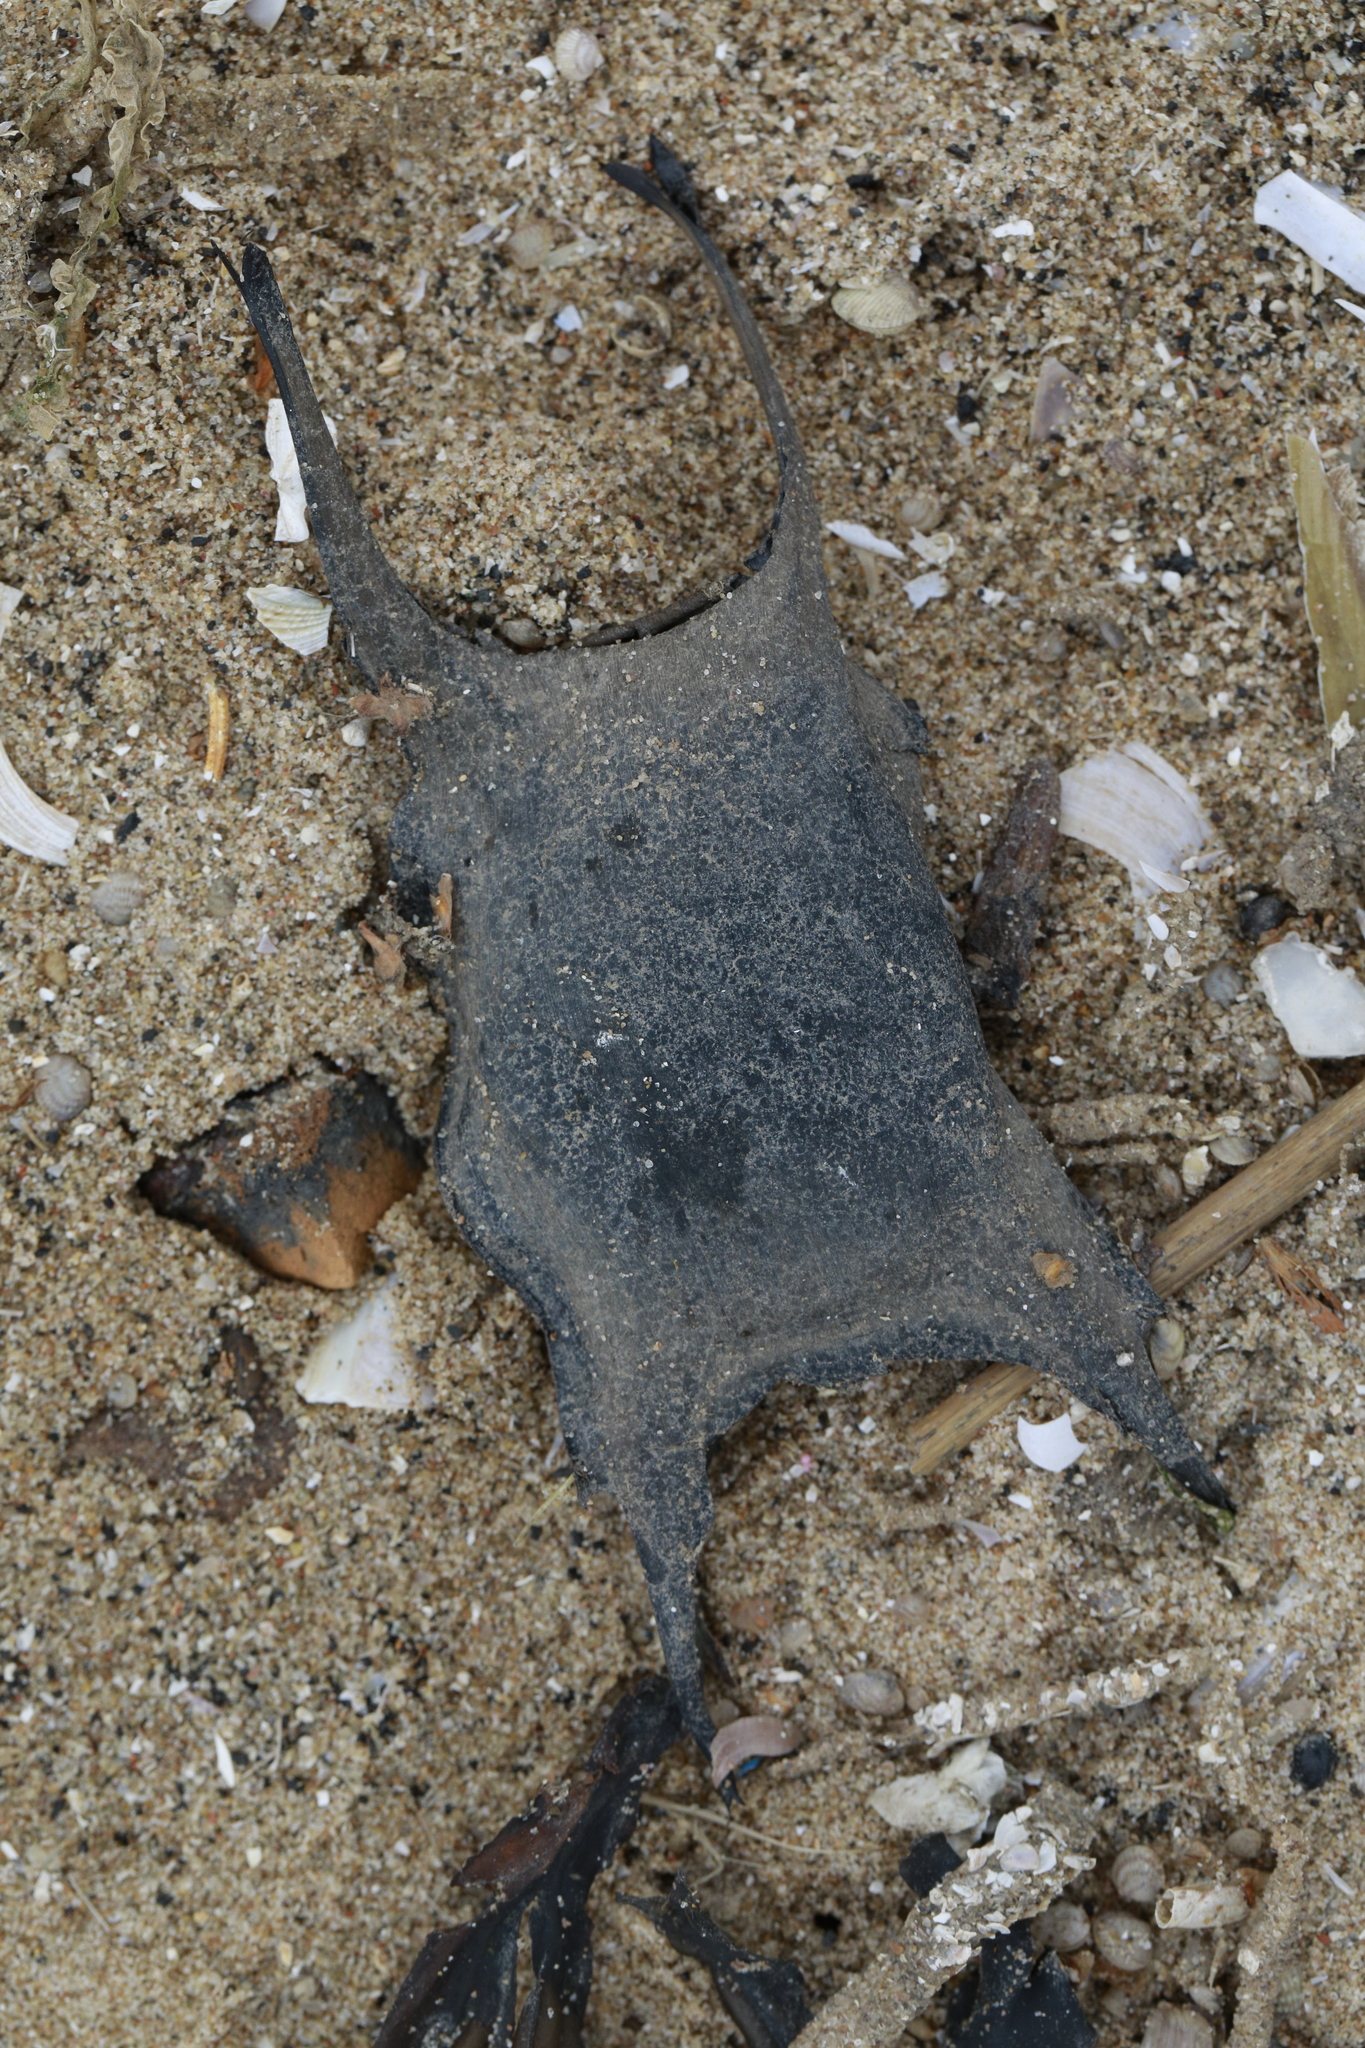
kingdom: Animalia
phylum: Chordata
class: Elasmobranchii
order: Rajiformes
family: Rajidae
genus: Raja
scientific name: Raja clavata
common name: Thornback ray
